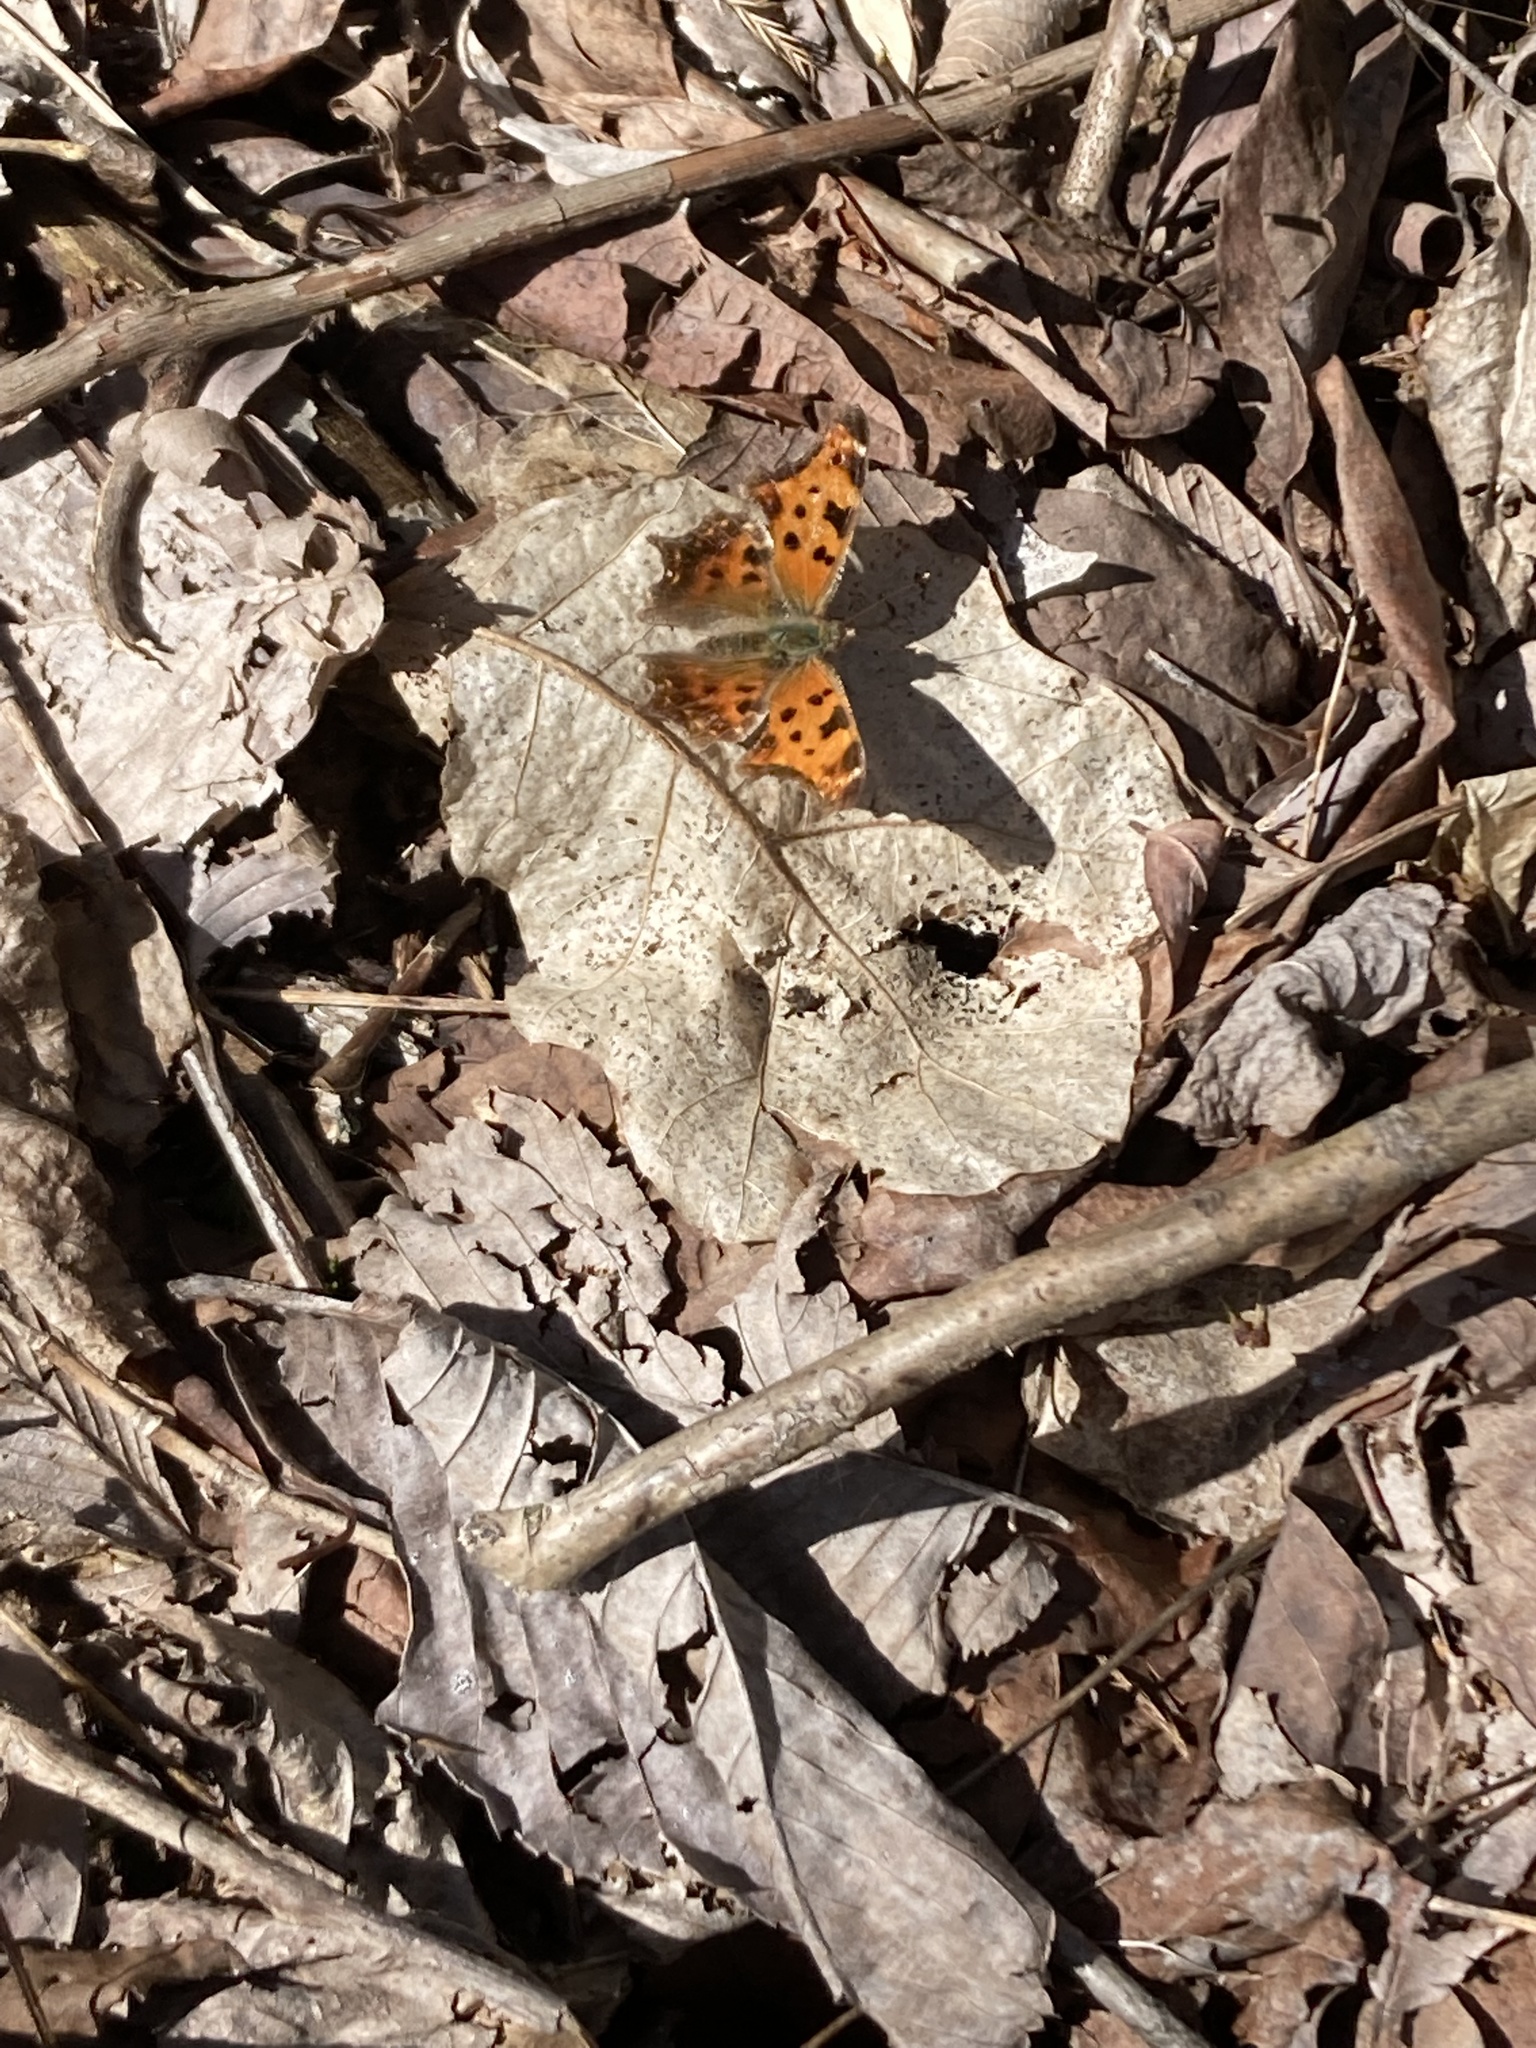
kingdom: Animalia
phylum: Arthropoda
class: Insecta
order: Lepidoptera
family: Nymphalidae
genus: Polygonia
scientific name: Polygonia comma
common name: Eastern comma
